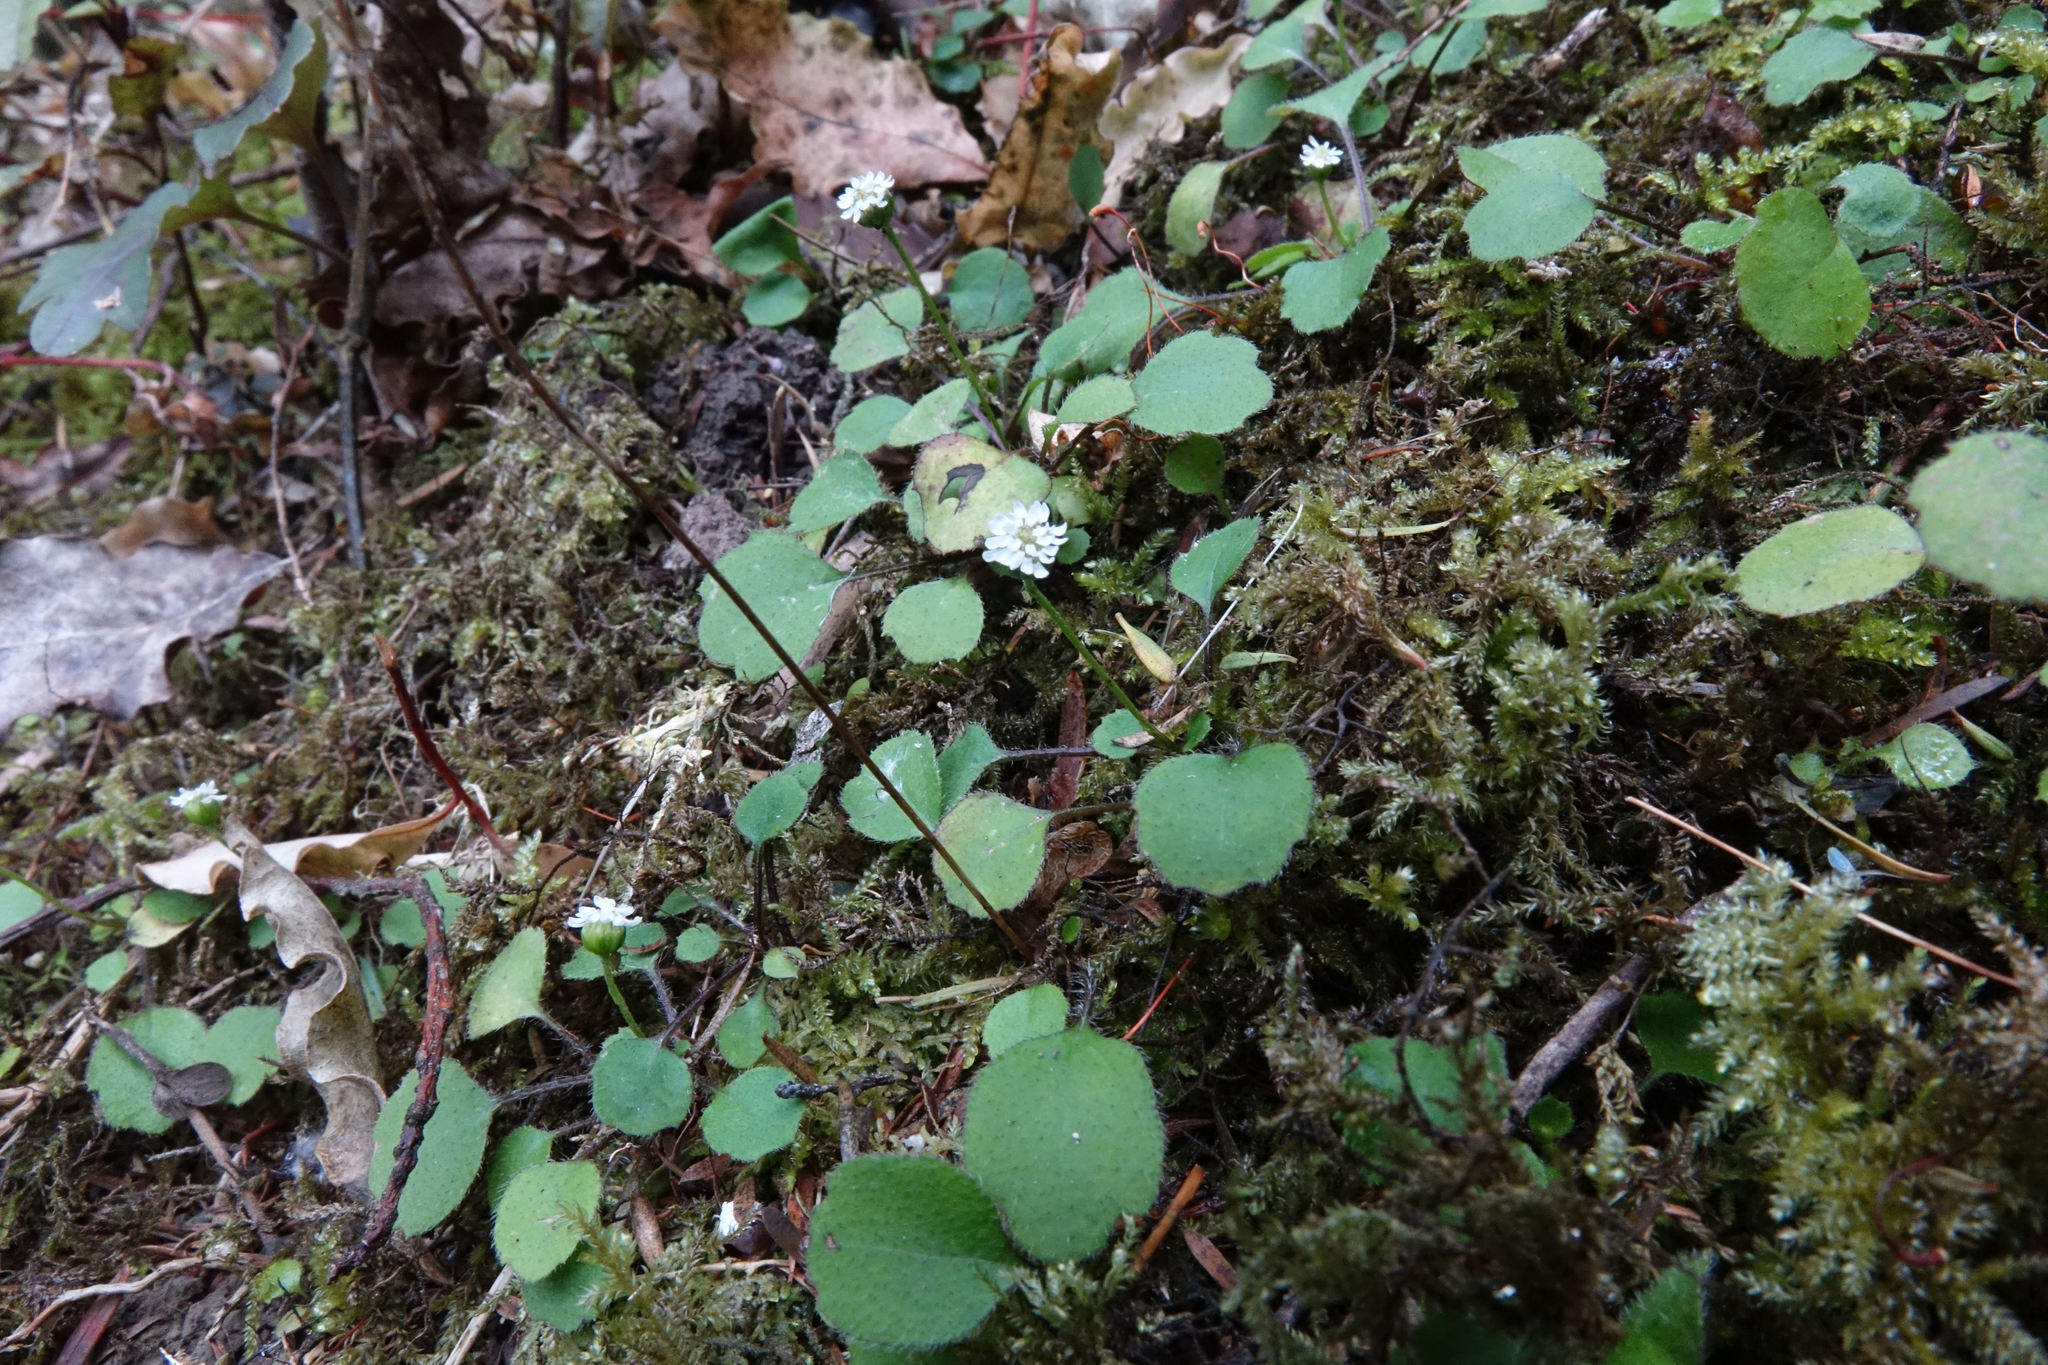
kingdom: Plantae
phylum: Tracheophyta
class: Magnoliopsida
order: Asterales
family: Asteraceae
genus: Lagenophora
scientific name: Lagenophora strangulata
